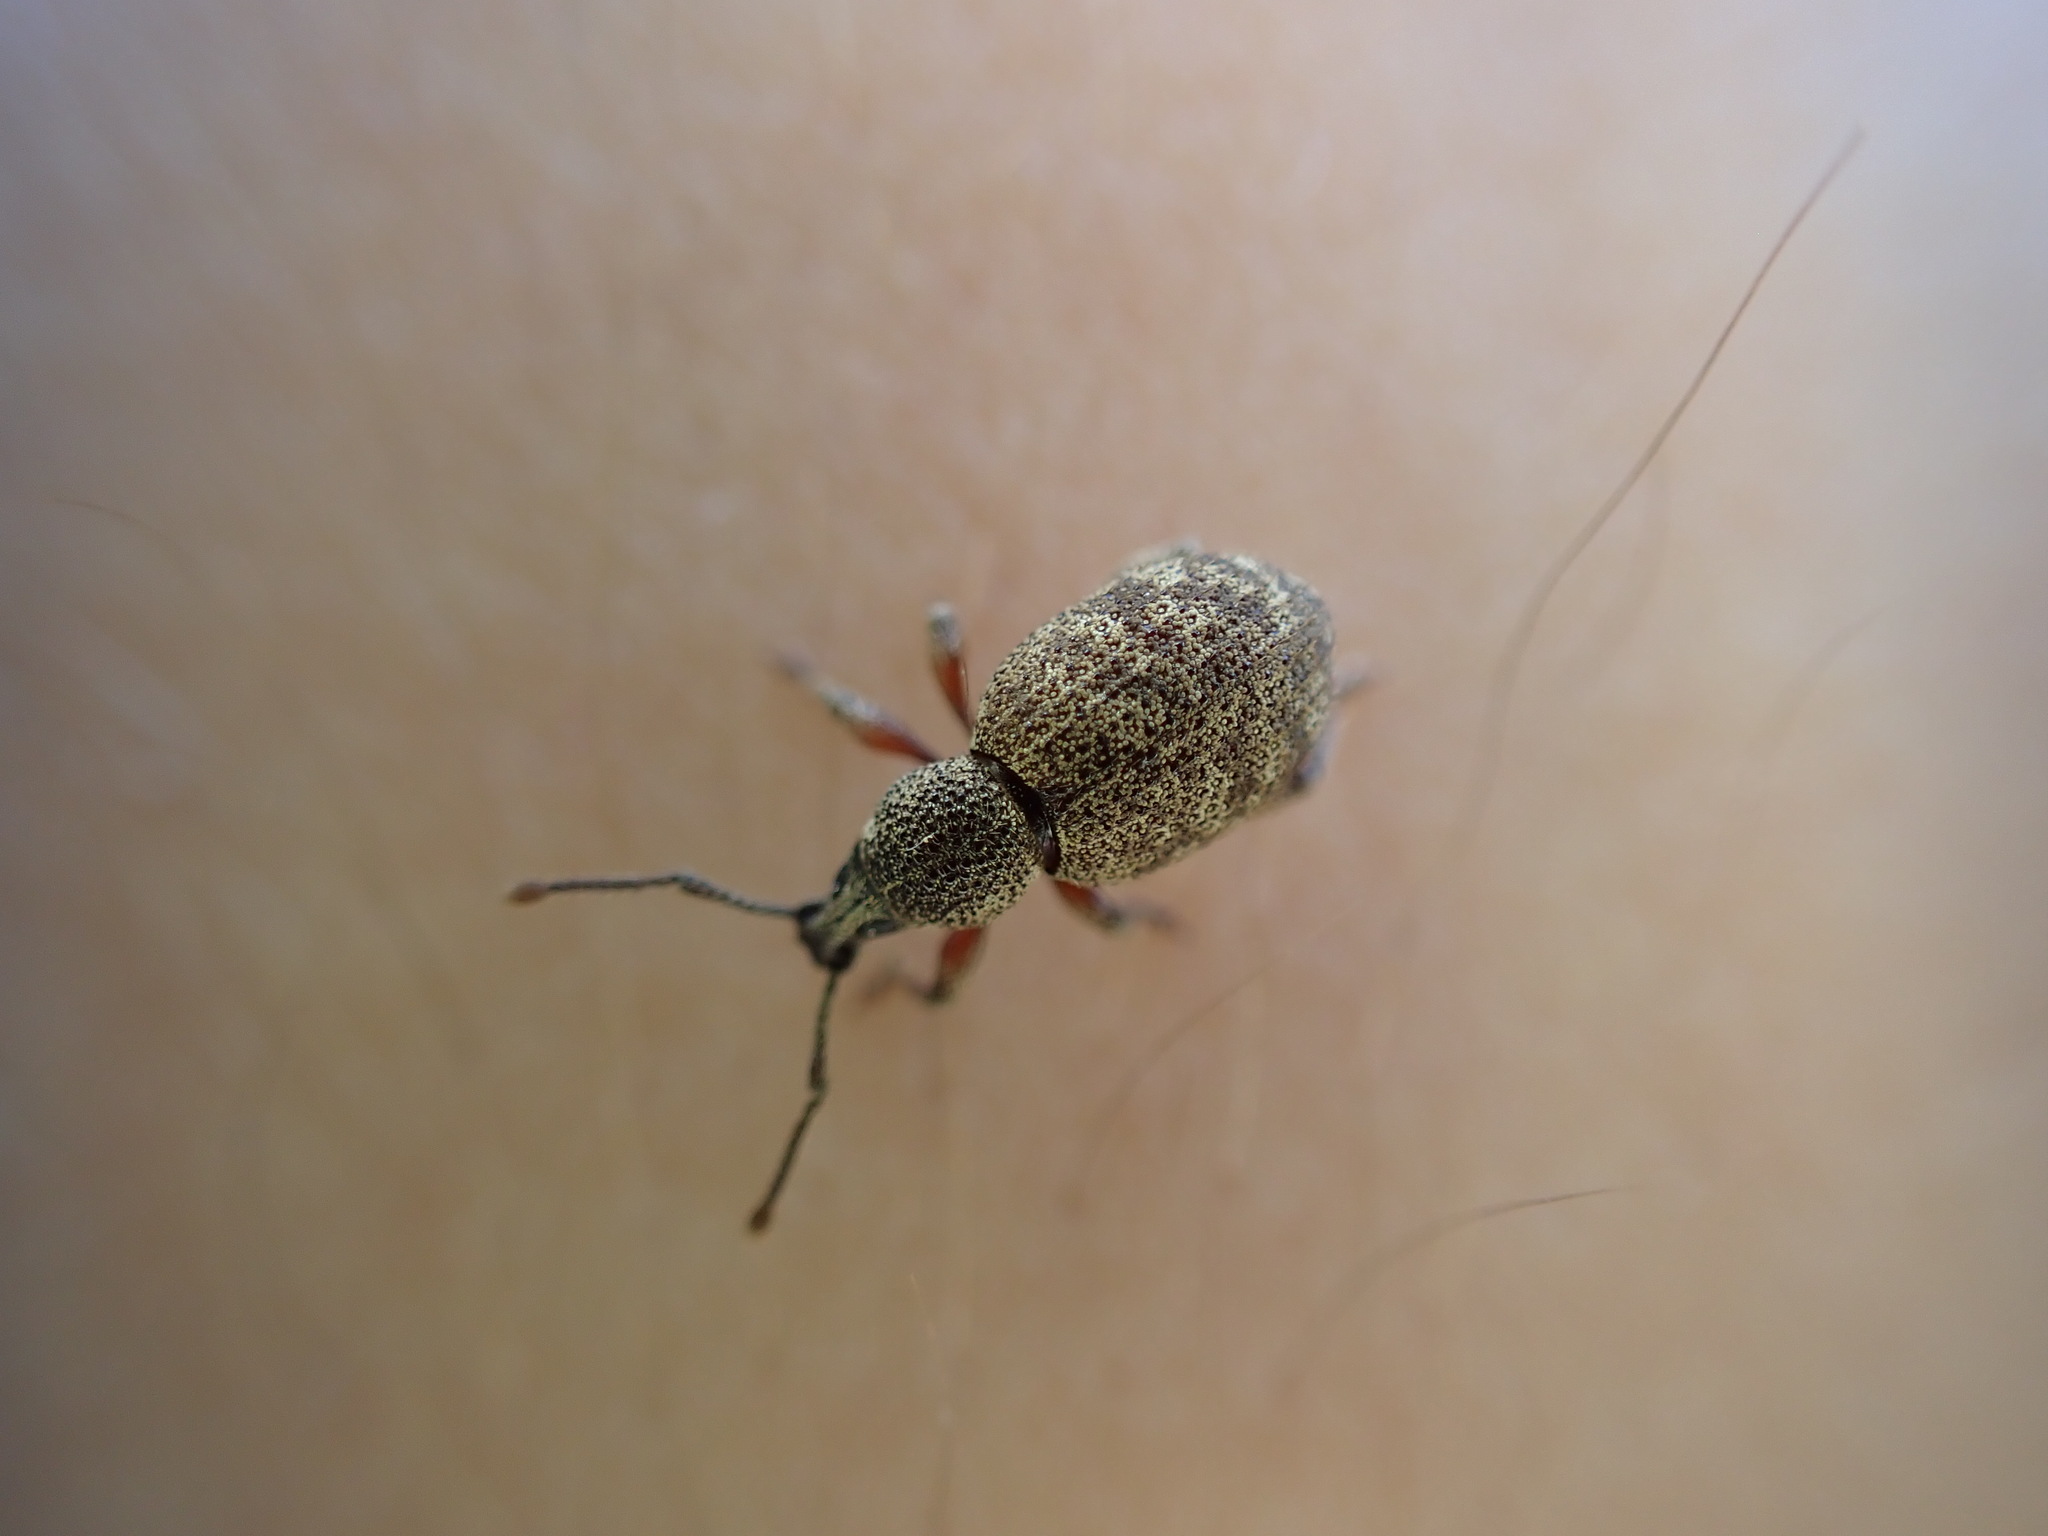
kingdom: Animalia
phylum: Arthropoda
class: Insecta
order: Coleoptera
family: Curculionidae
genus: Otiorhynchus
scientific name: Otiorhynchus singularis
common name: Clay-coloured weevil
